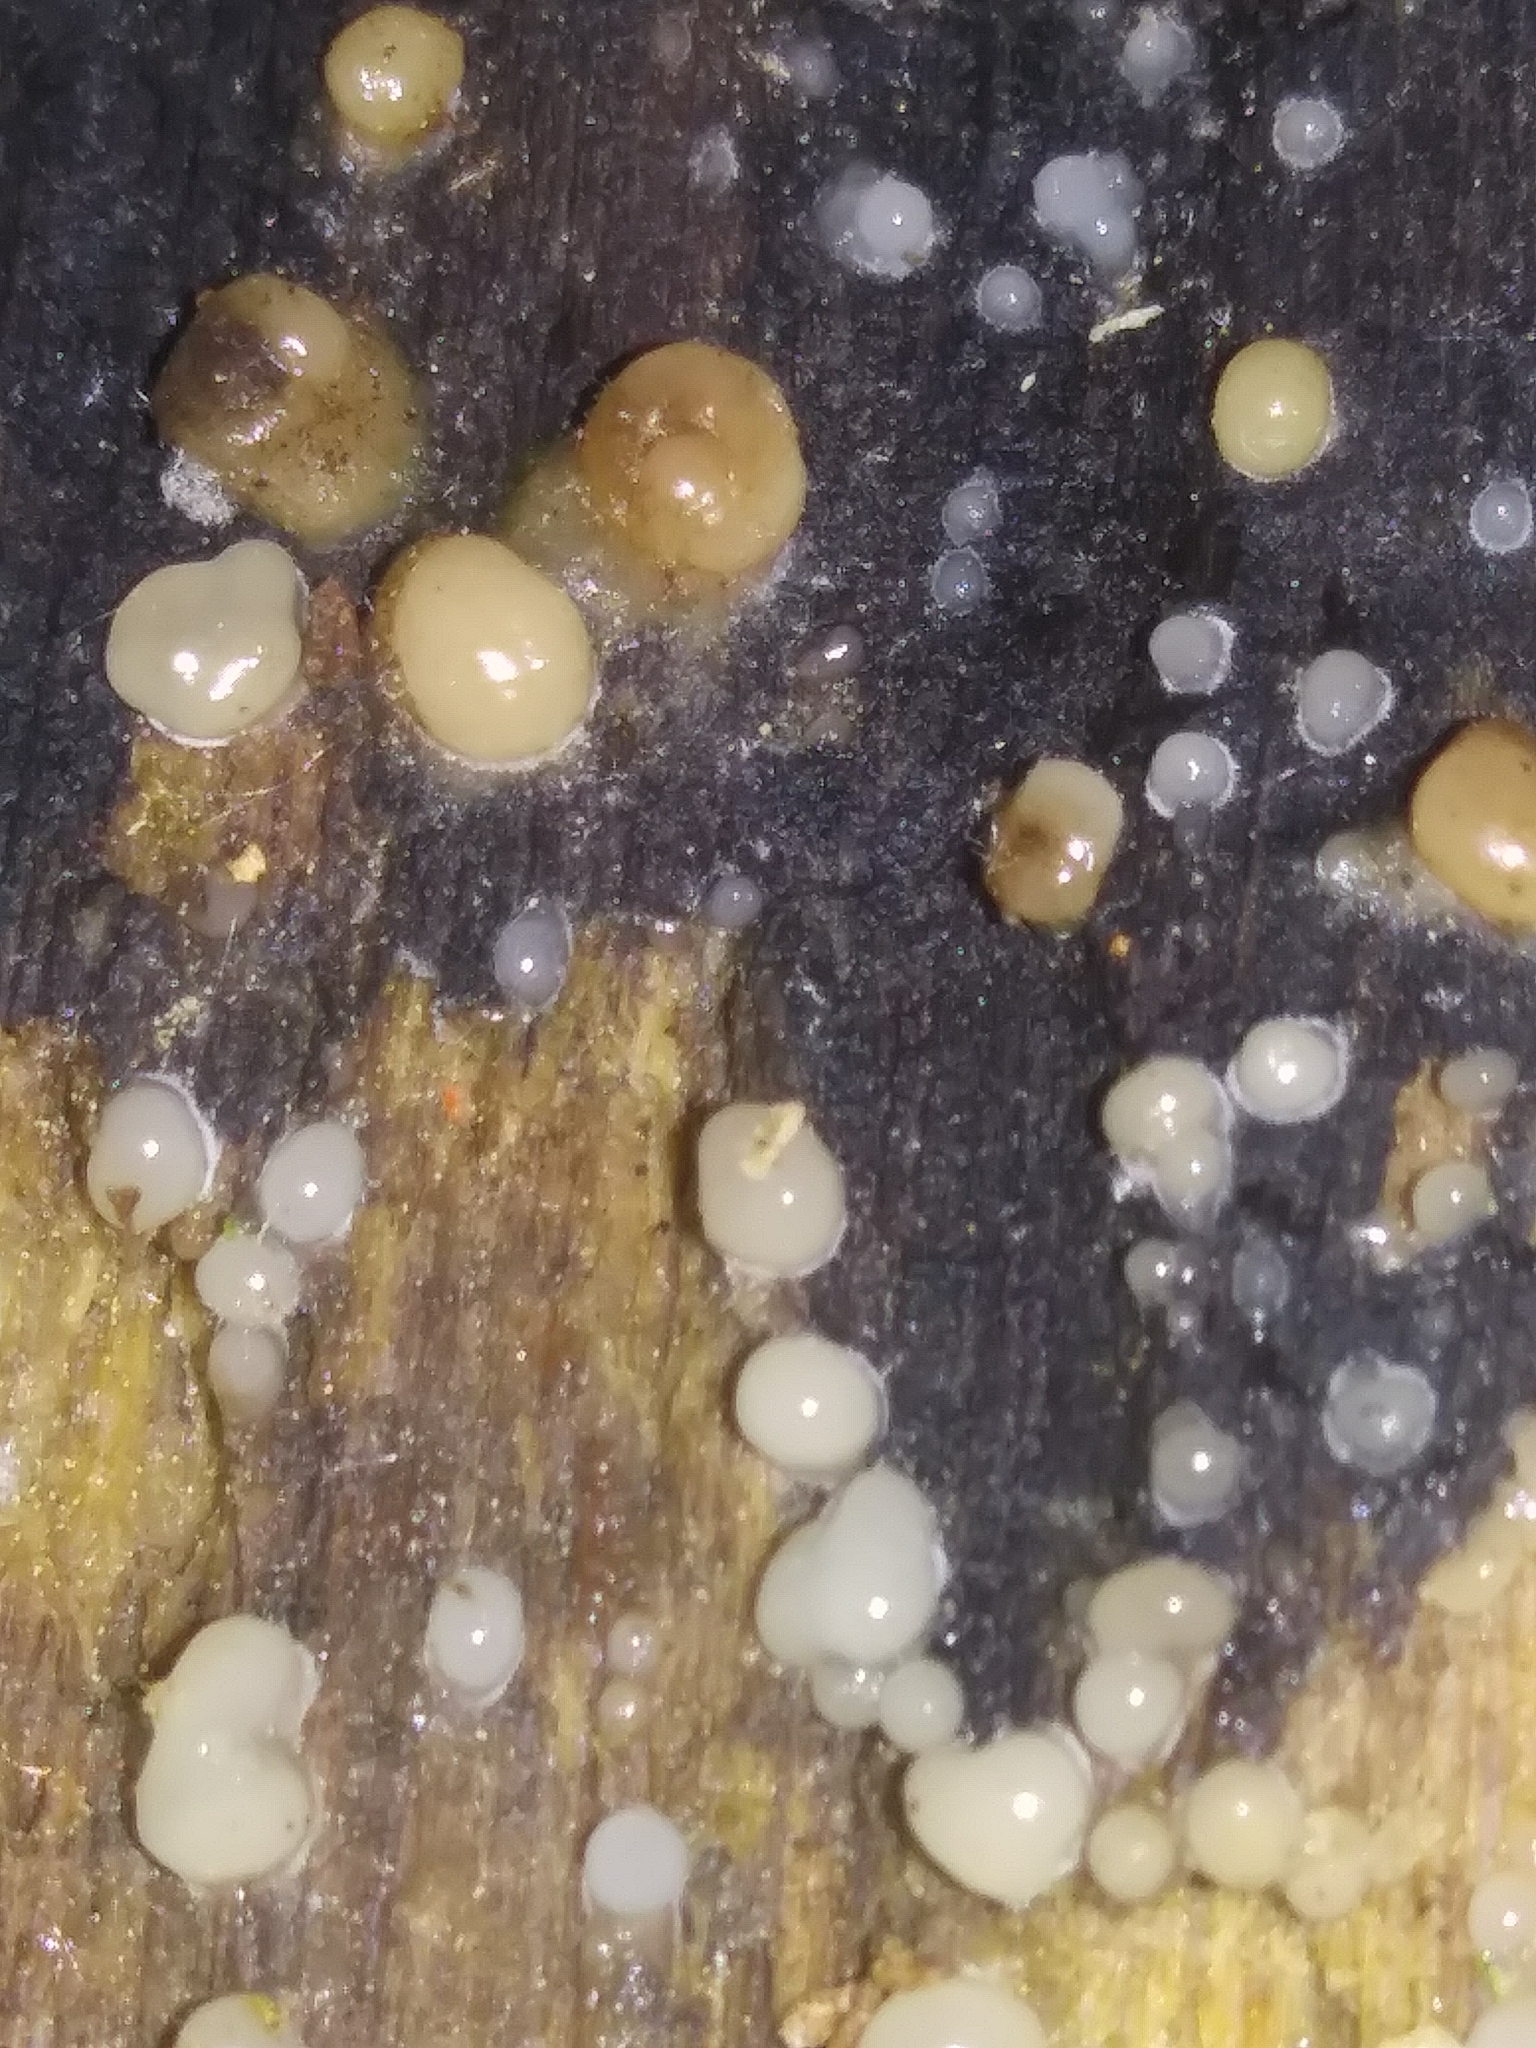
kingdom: Fungi
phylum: Basidiomycota
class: Atractiellomycetes
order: Atractiellales
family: Phleogenaceae
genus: Helicogloea
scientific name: Helicogloea compressa
